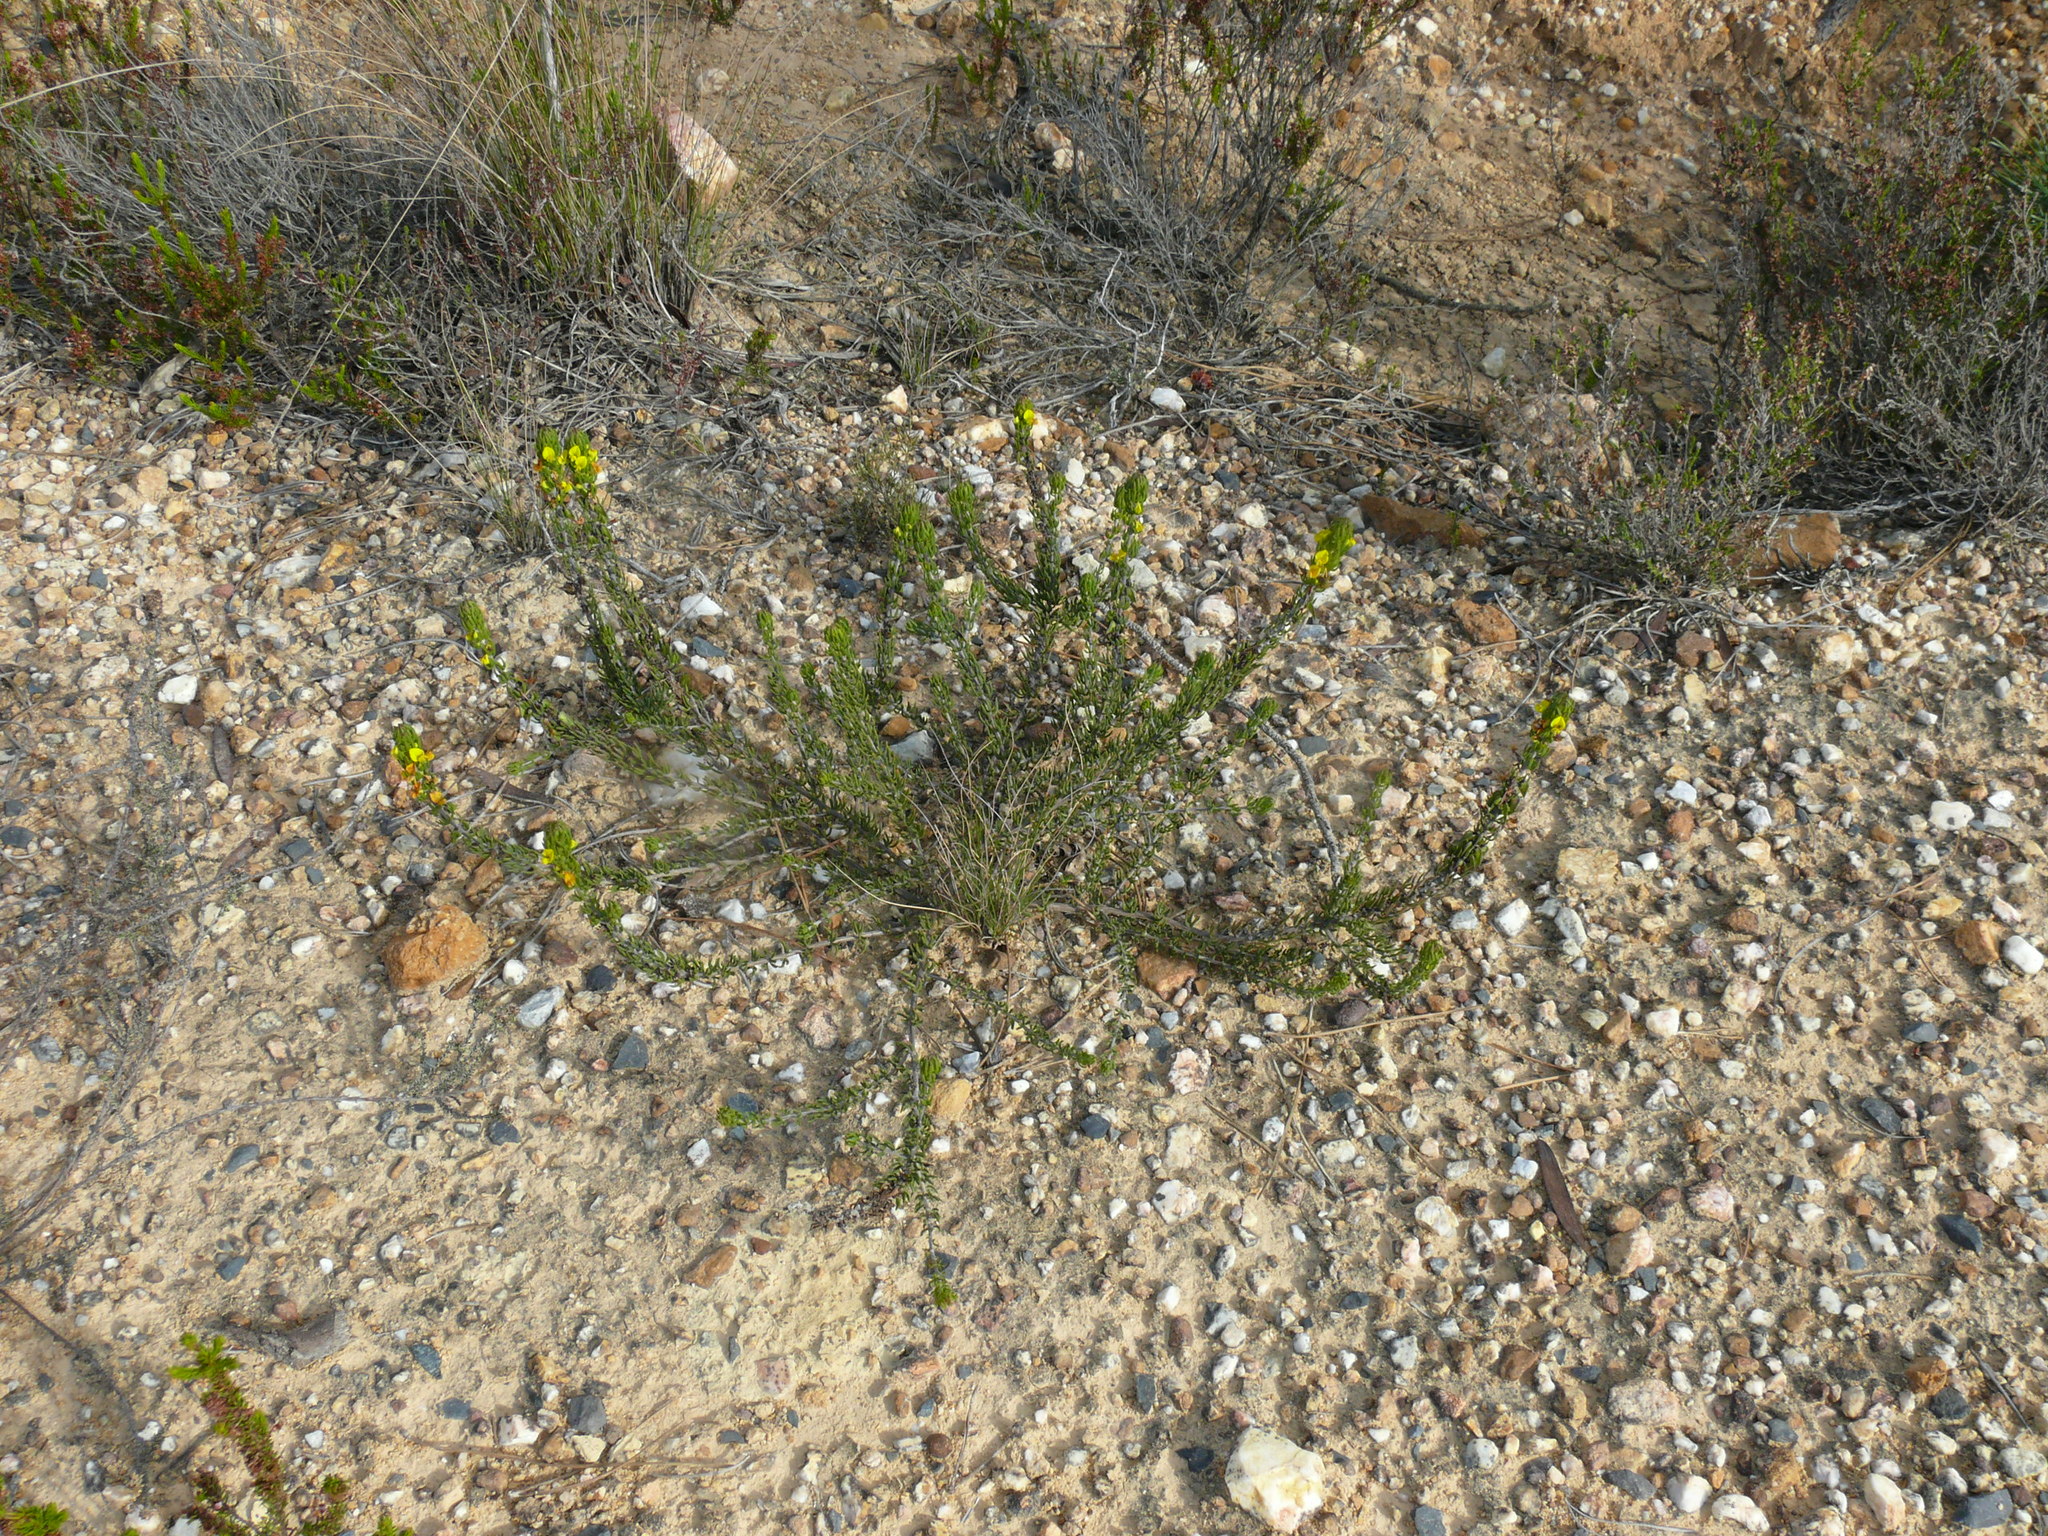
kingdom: Plantae
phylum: Tracheophyta
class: Magnoliopsida
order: Fabales
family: Fabaceae
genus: Aspalathus
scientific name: Aspalathus mundiana
